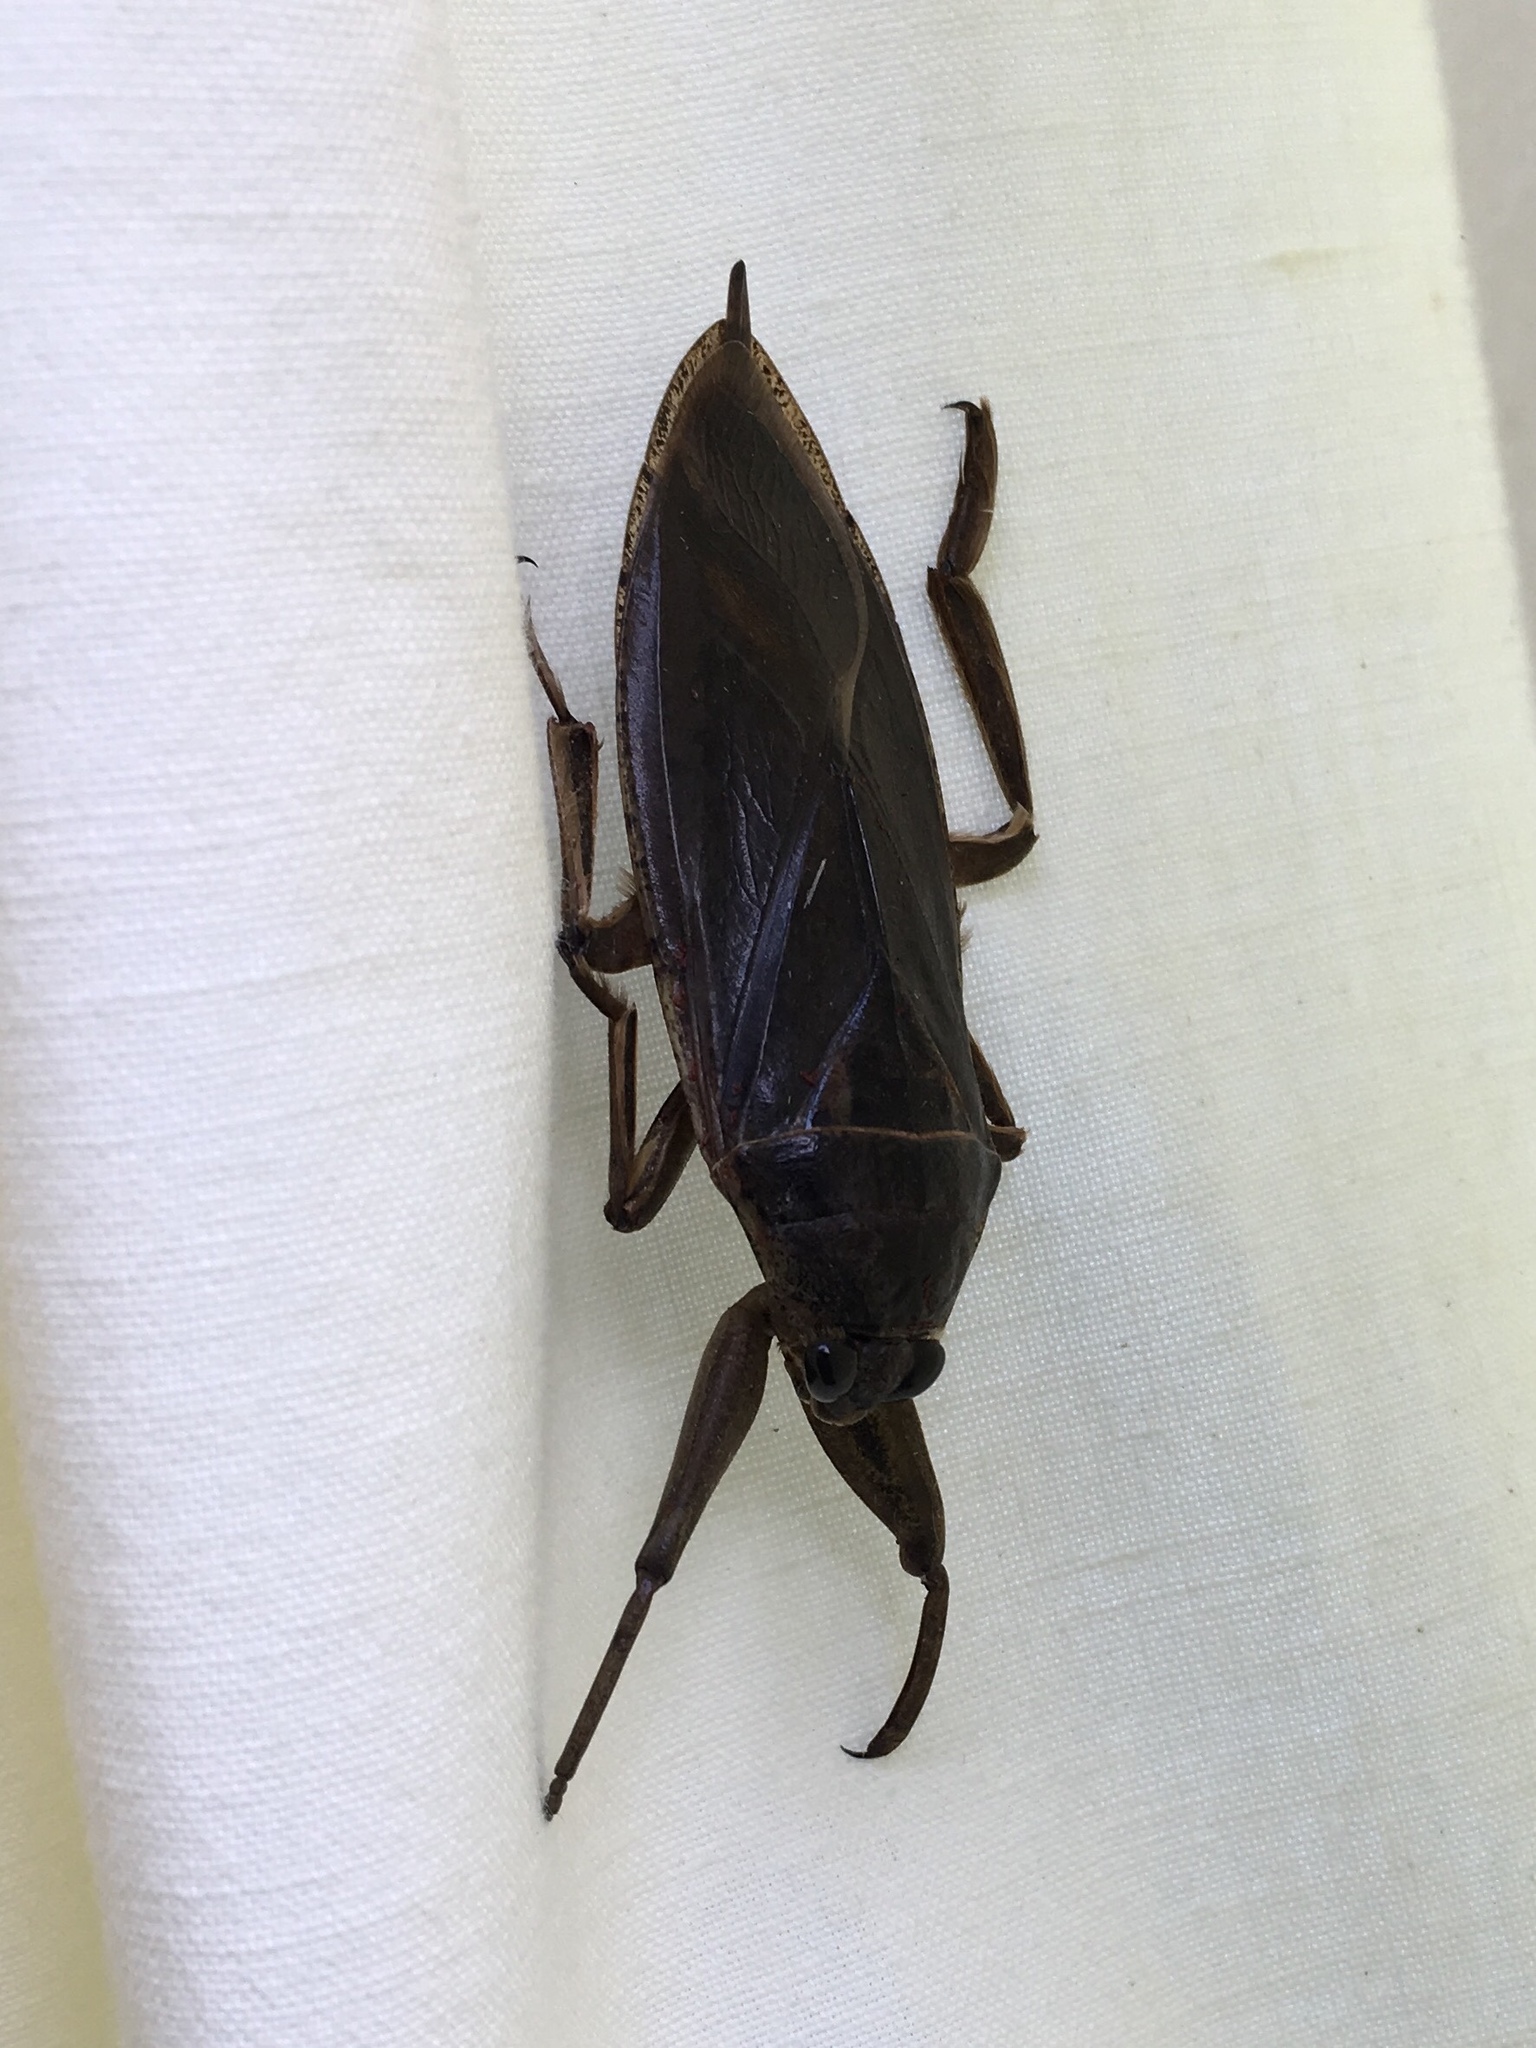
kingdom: Animalia
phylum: Arthropoda
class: Insecta
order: Hemiptera
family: Belostomatidae
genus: Lethocerus
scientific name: Lethocerus americanus
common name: Giant water bug
